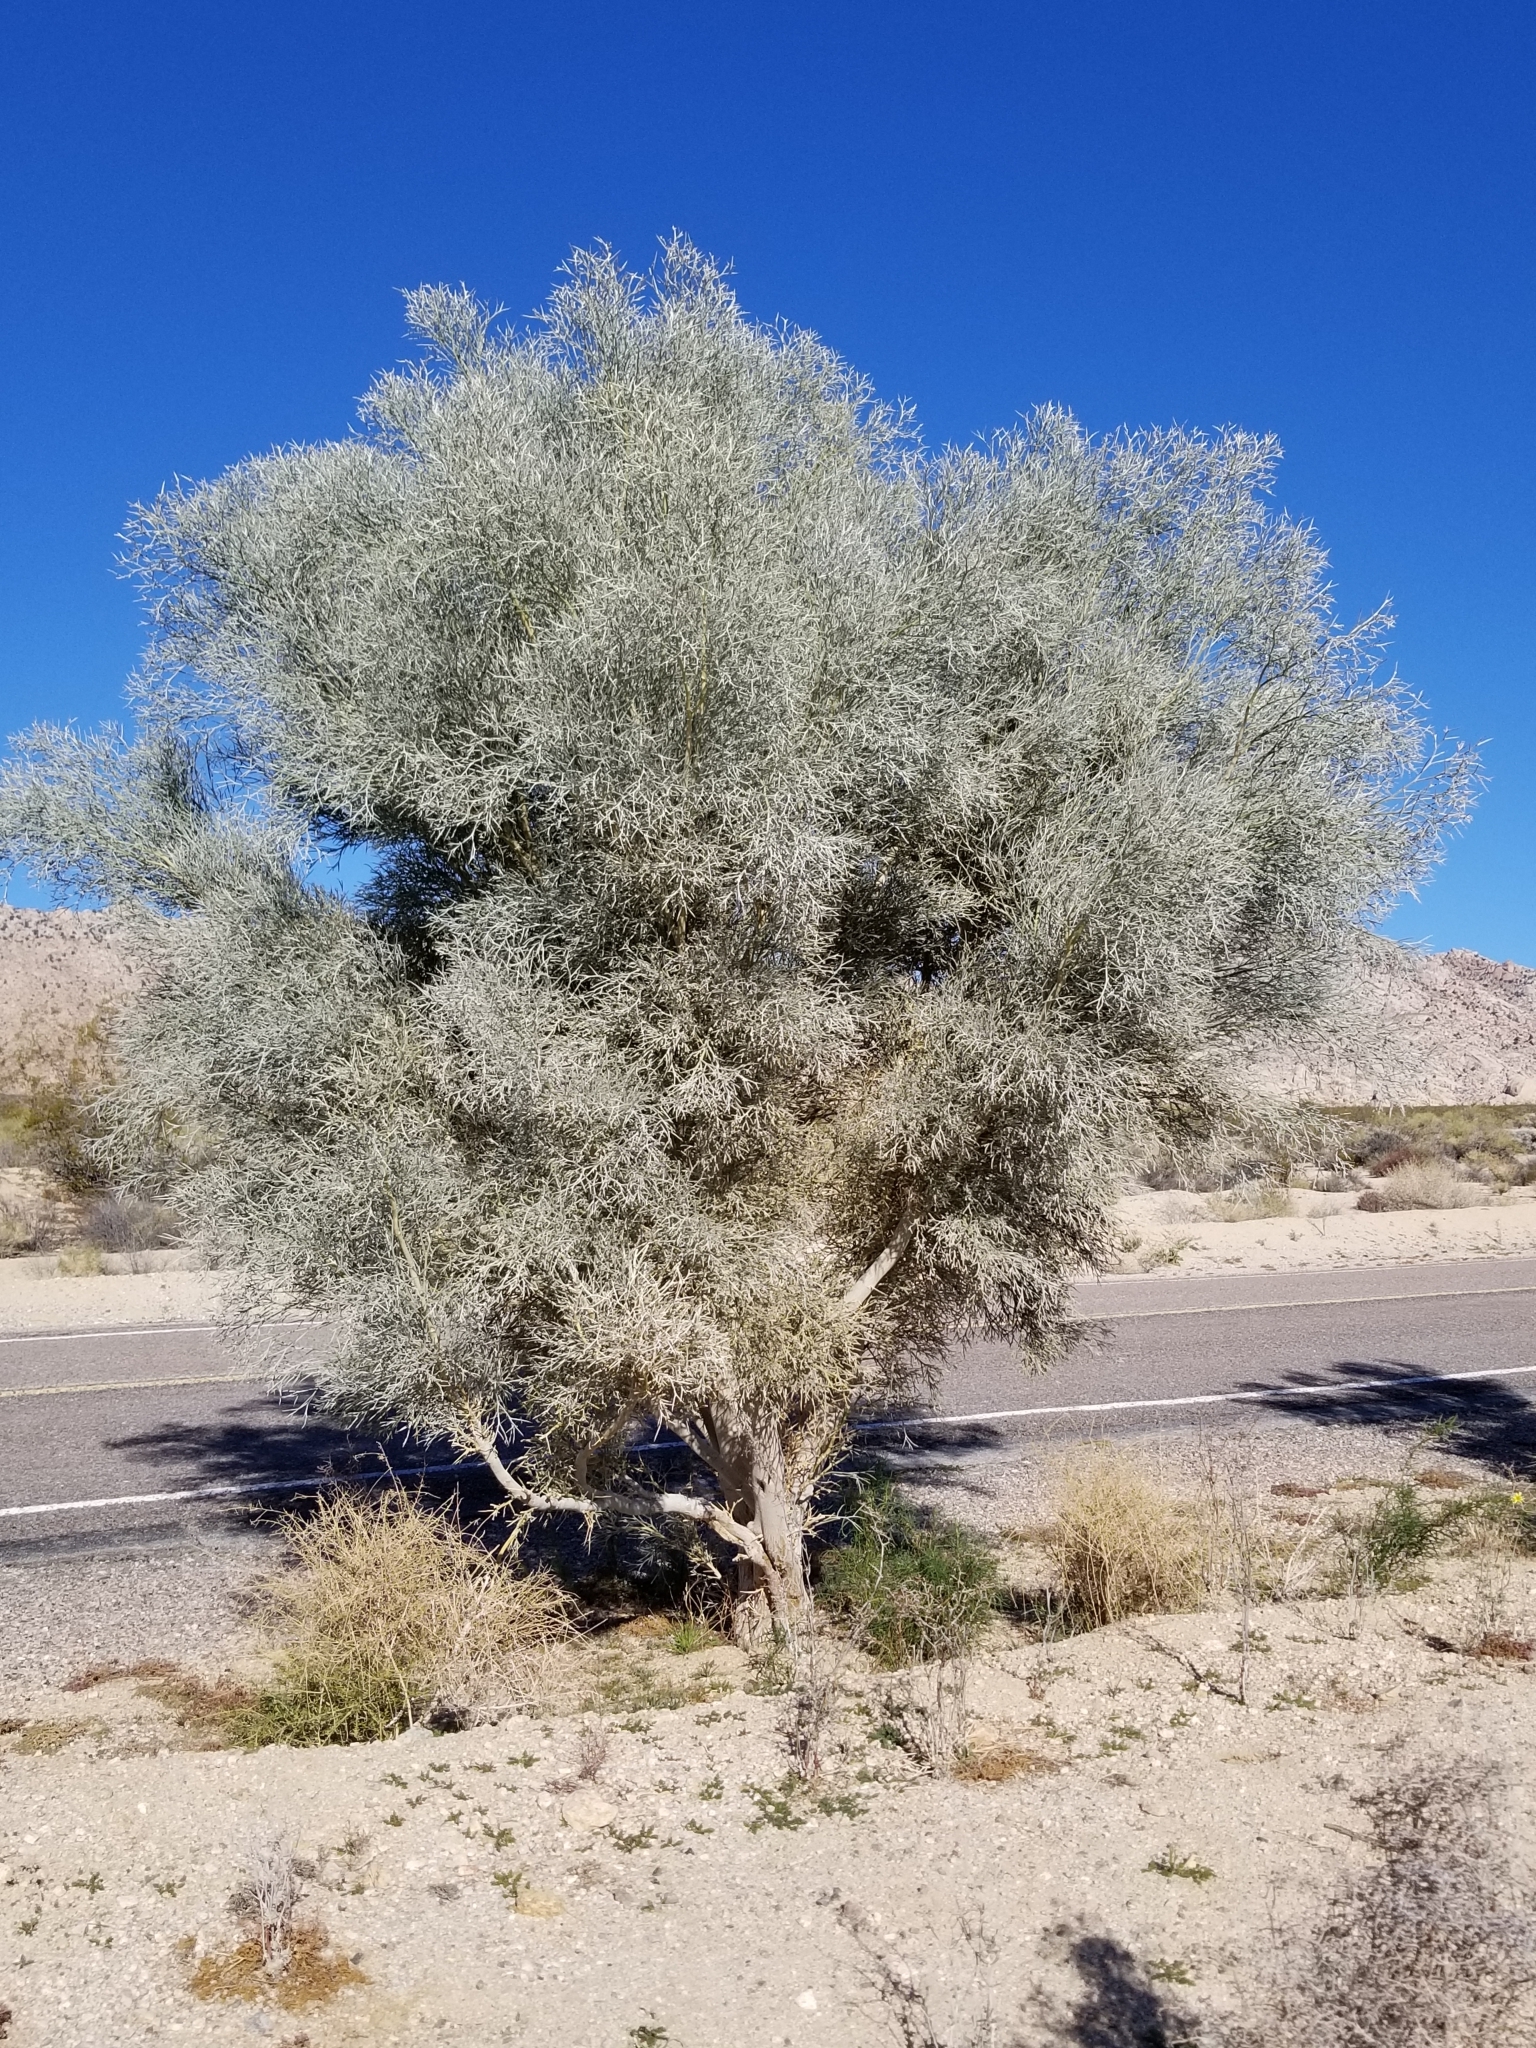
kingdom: Plantae
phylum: Tracheophyta
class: Magnoliopsida
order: Fabales
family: Fabaceae
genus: Psorothamnus
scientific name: Psorothamnus spinosus
